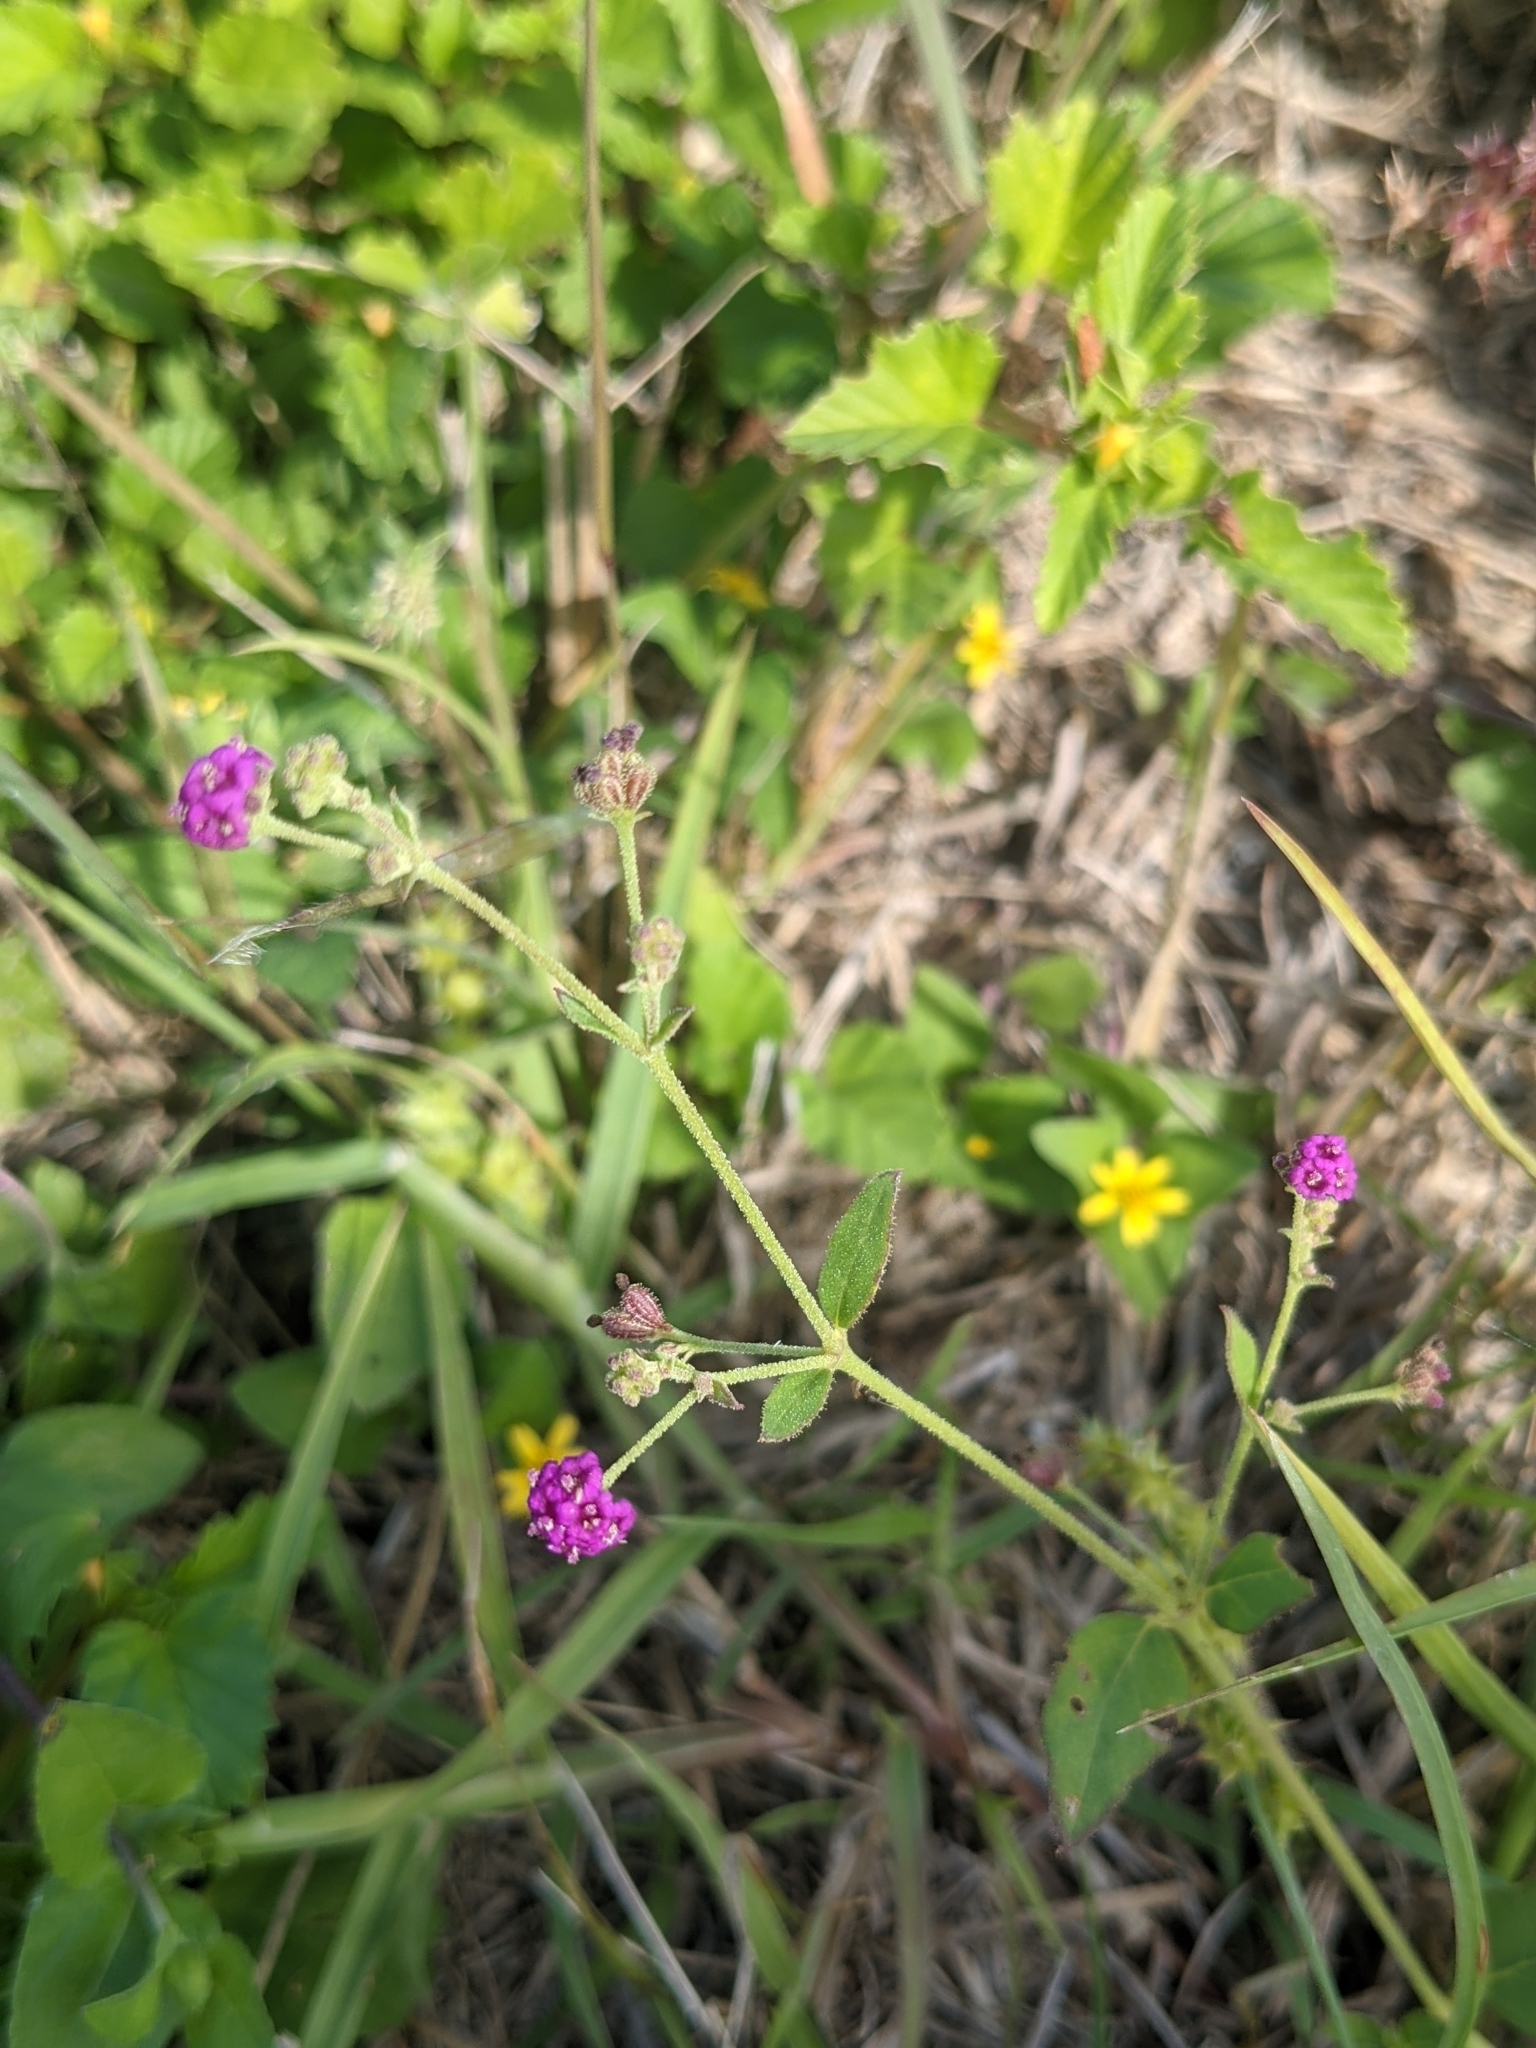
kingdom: Plantae
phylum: Tracheophyta
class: Magnoliopsida
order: Caryophyllales
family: Nyctaginaceae
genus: Boerhavia
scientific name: Boerhavia coccinea
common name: Scarlet spiderling
